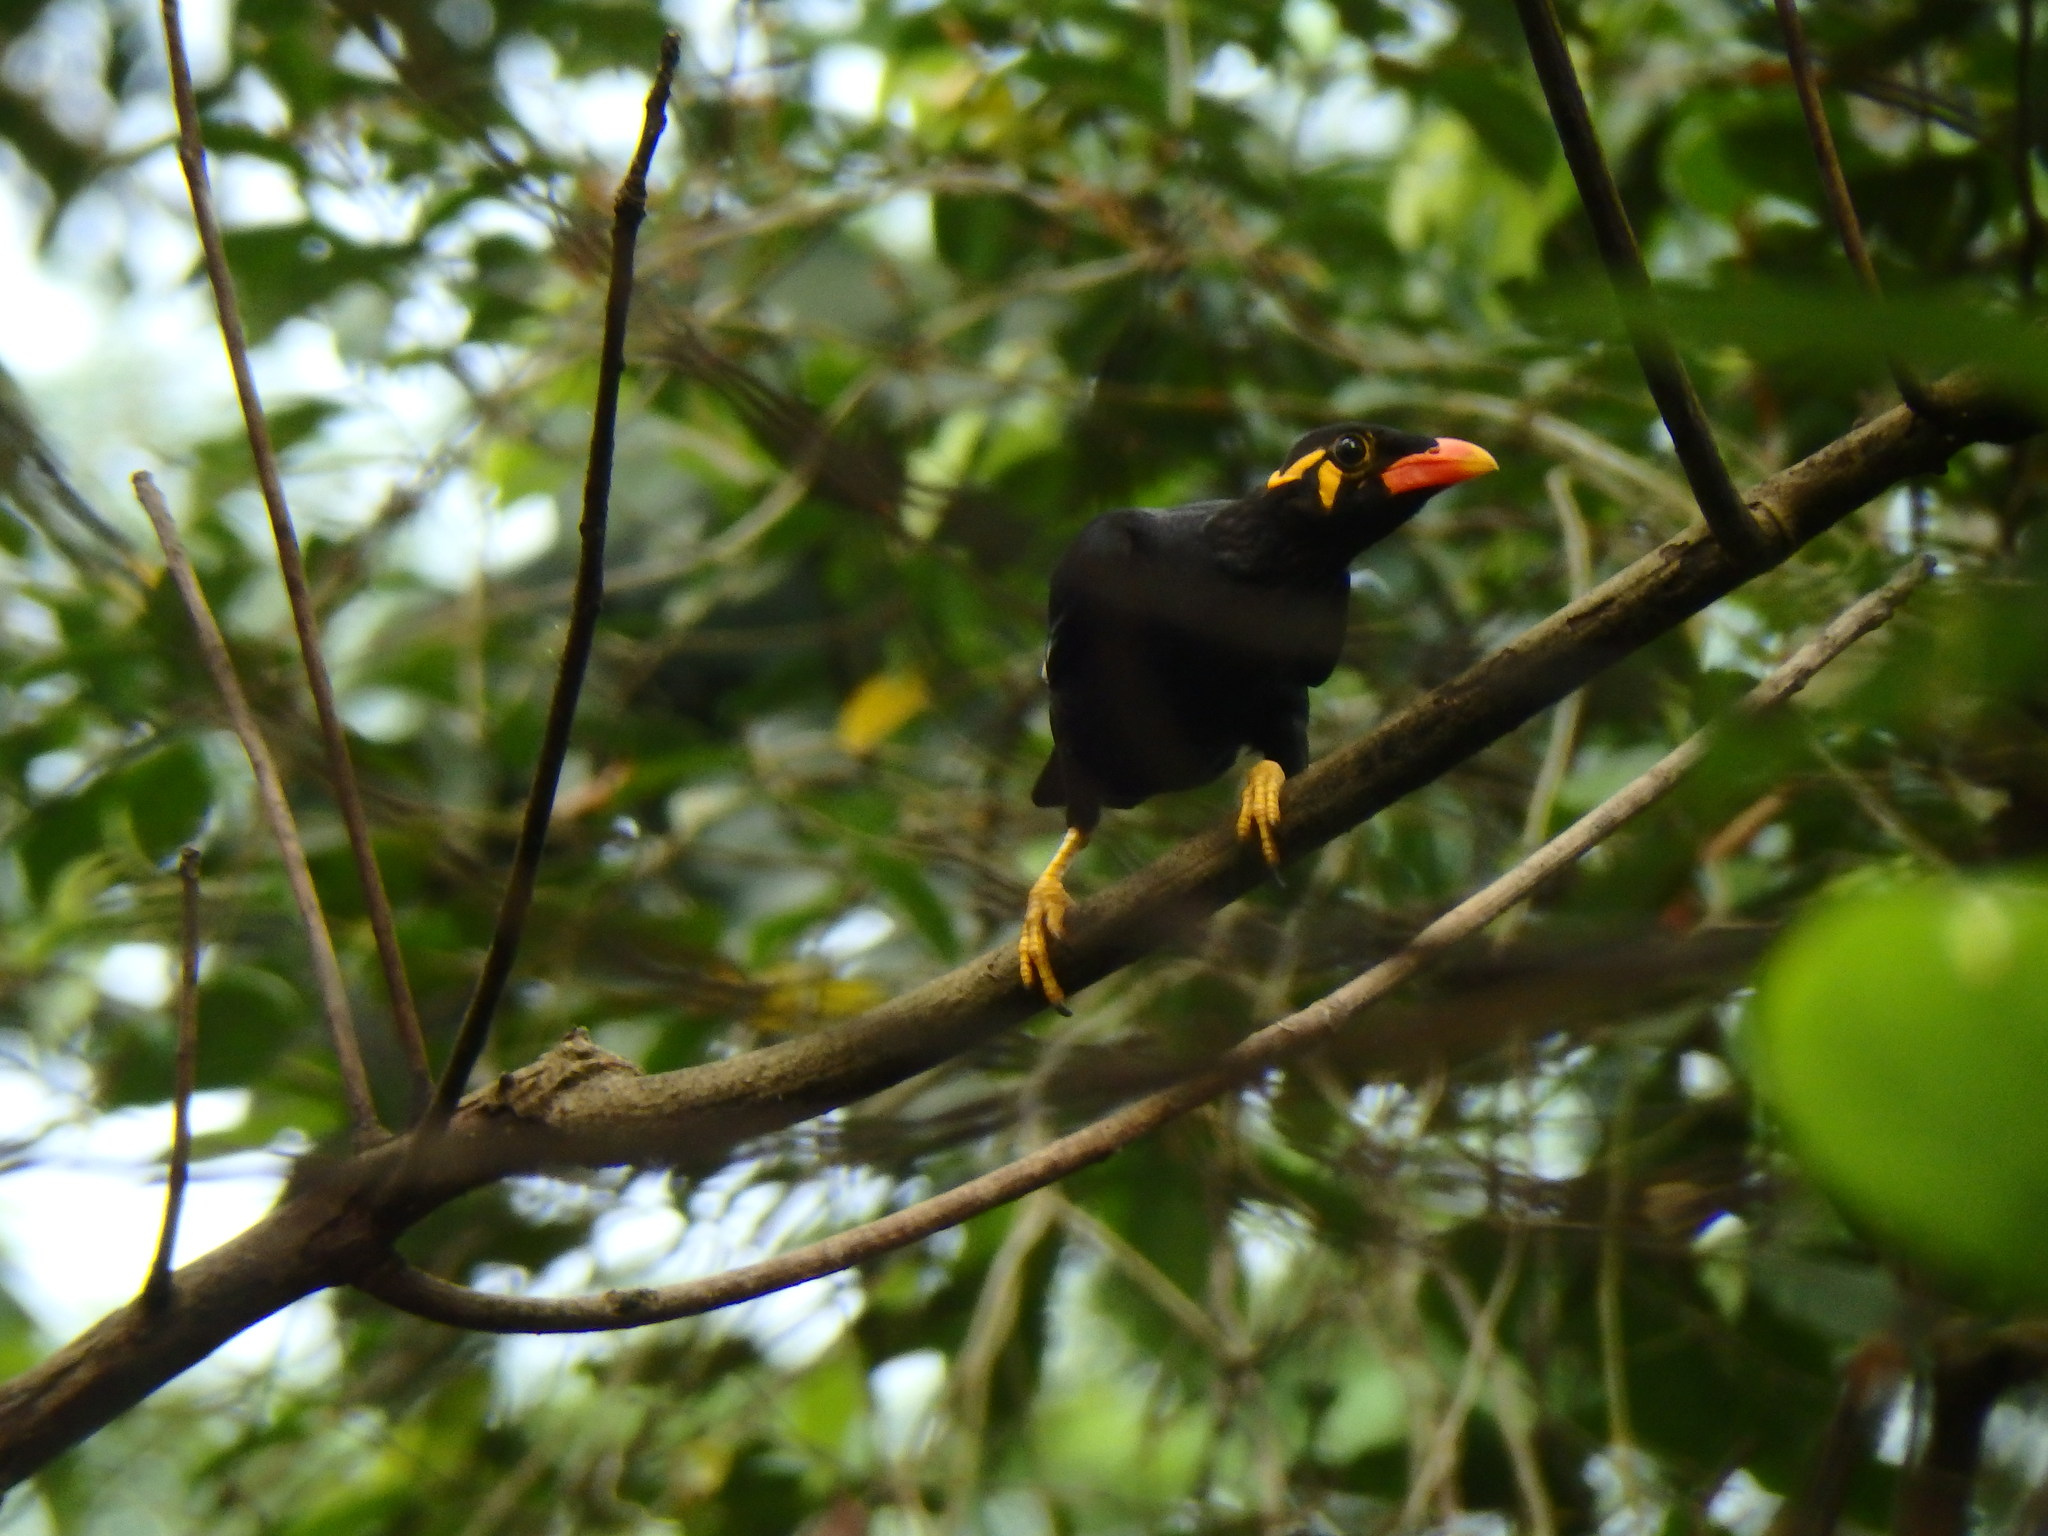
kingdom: Animalia
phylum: Chordata
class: Aves
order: Passeriformes
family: Sturnidae
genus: Gracula
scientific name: Gracula religiosa
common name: Common hill myna
